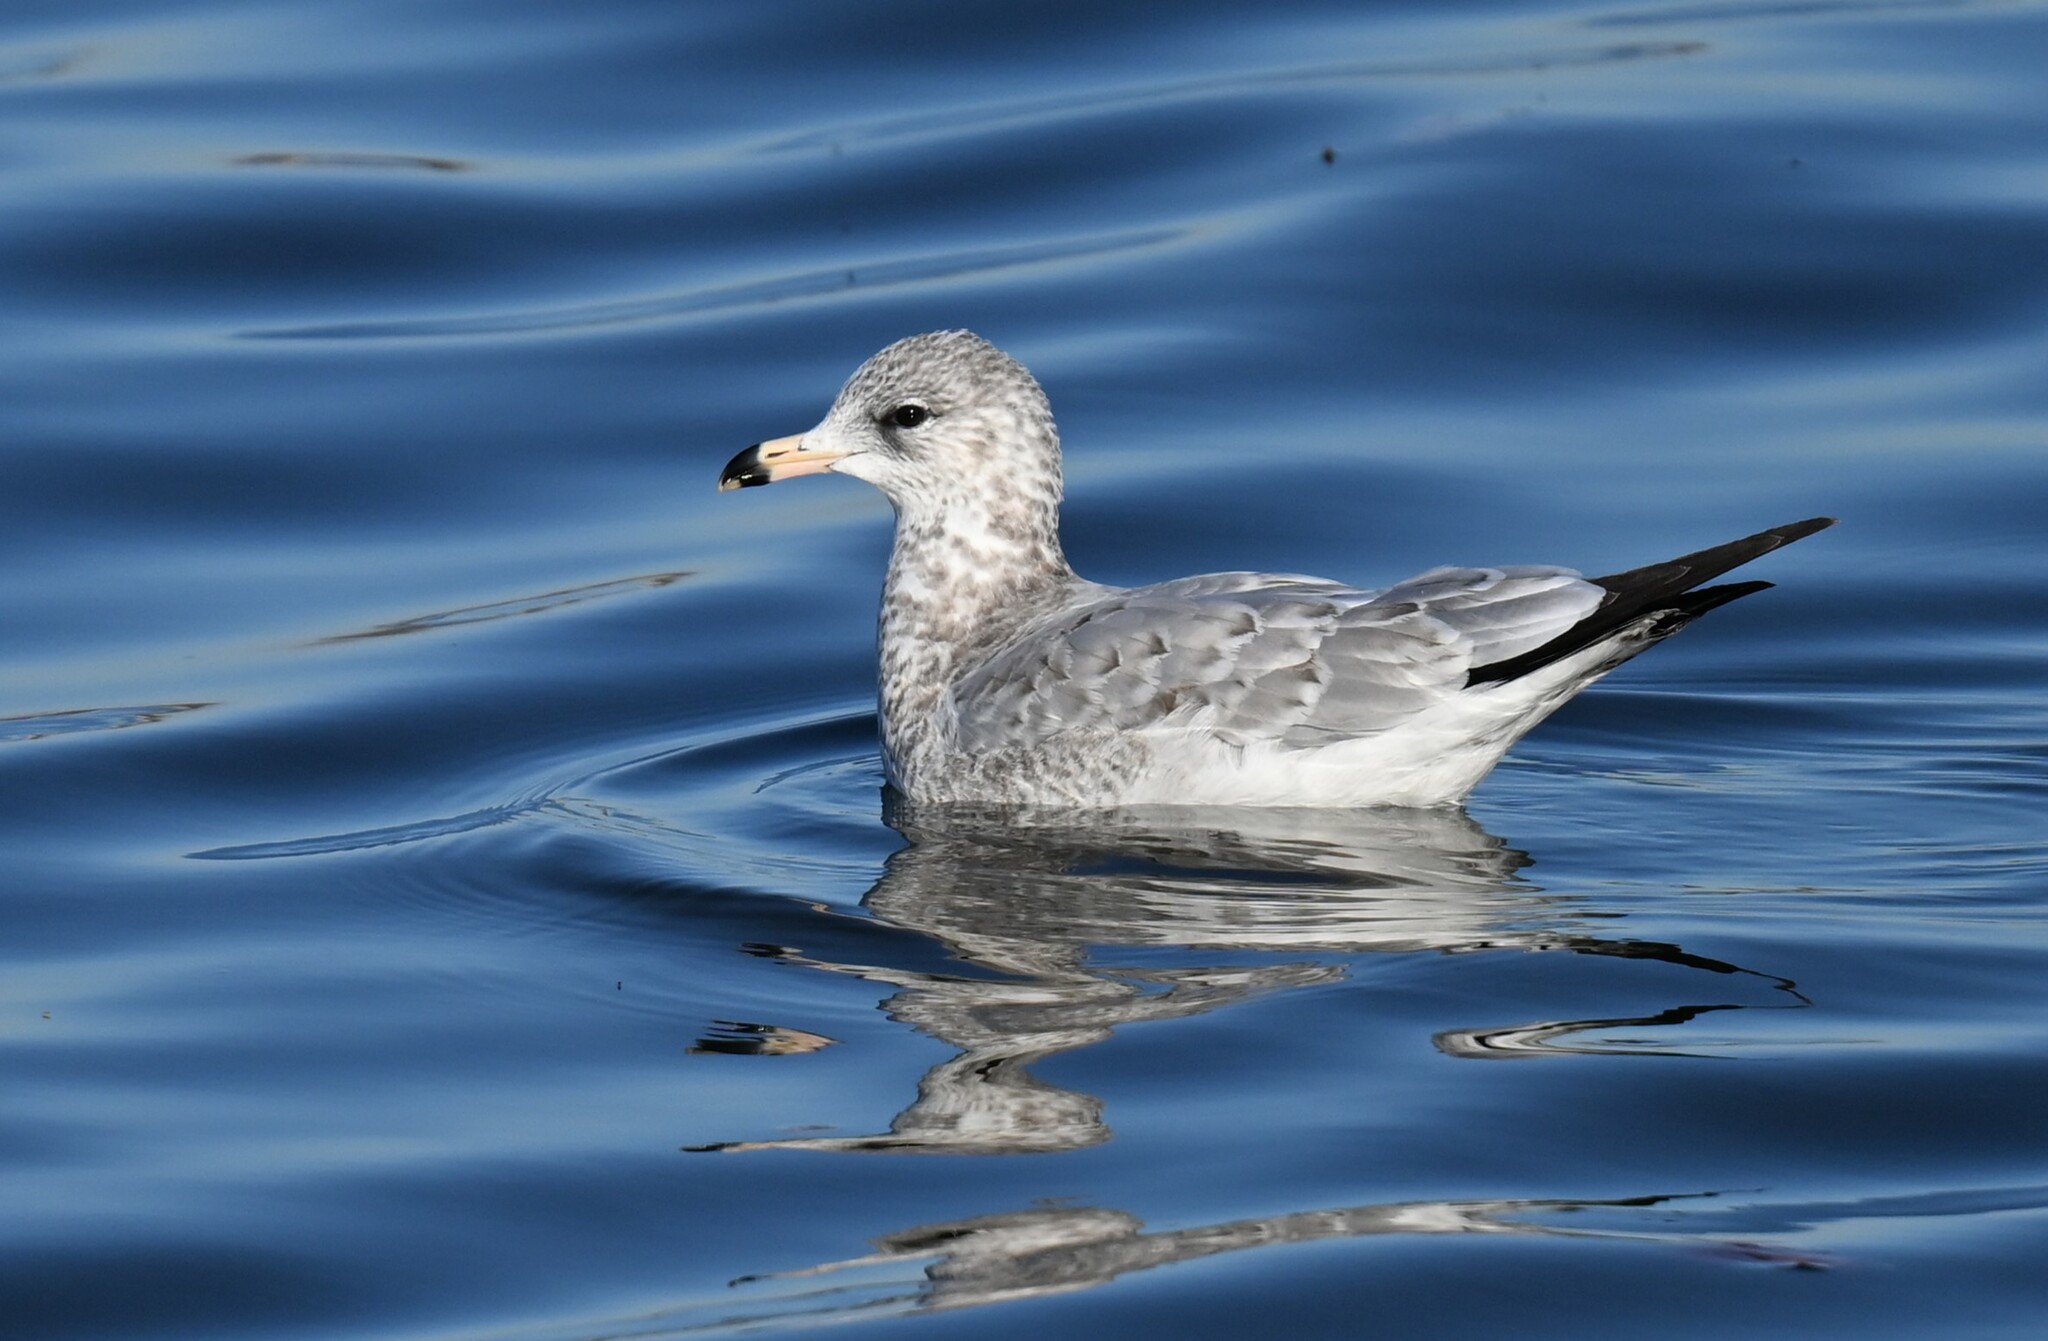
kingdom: Animalia
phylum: Chordata
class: Aves
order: Charadriiformes
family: Laridae
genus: Larus
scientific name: Larus delawarensis
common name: Ring-billed gull
